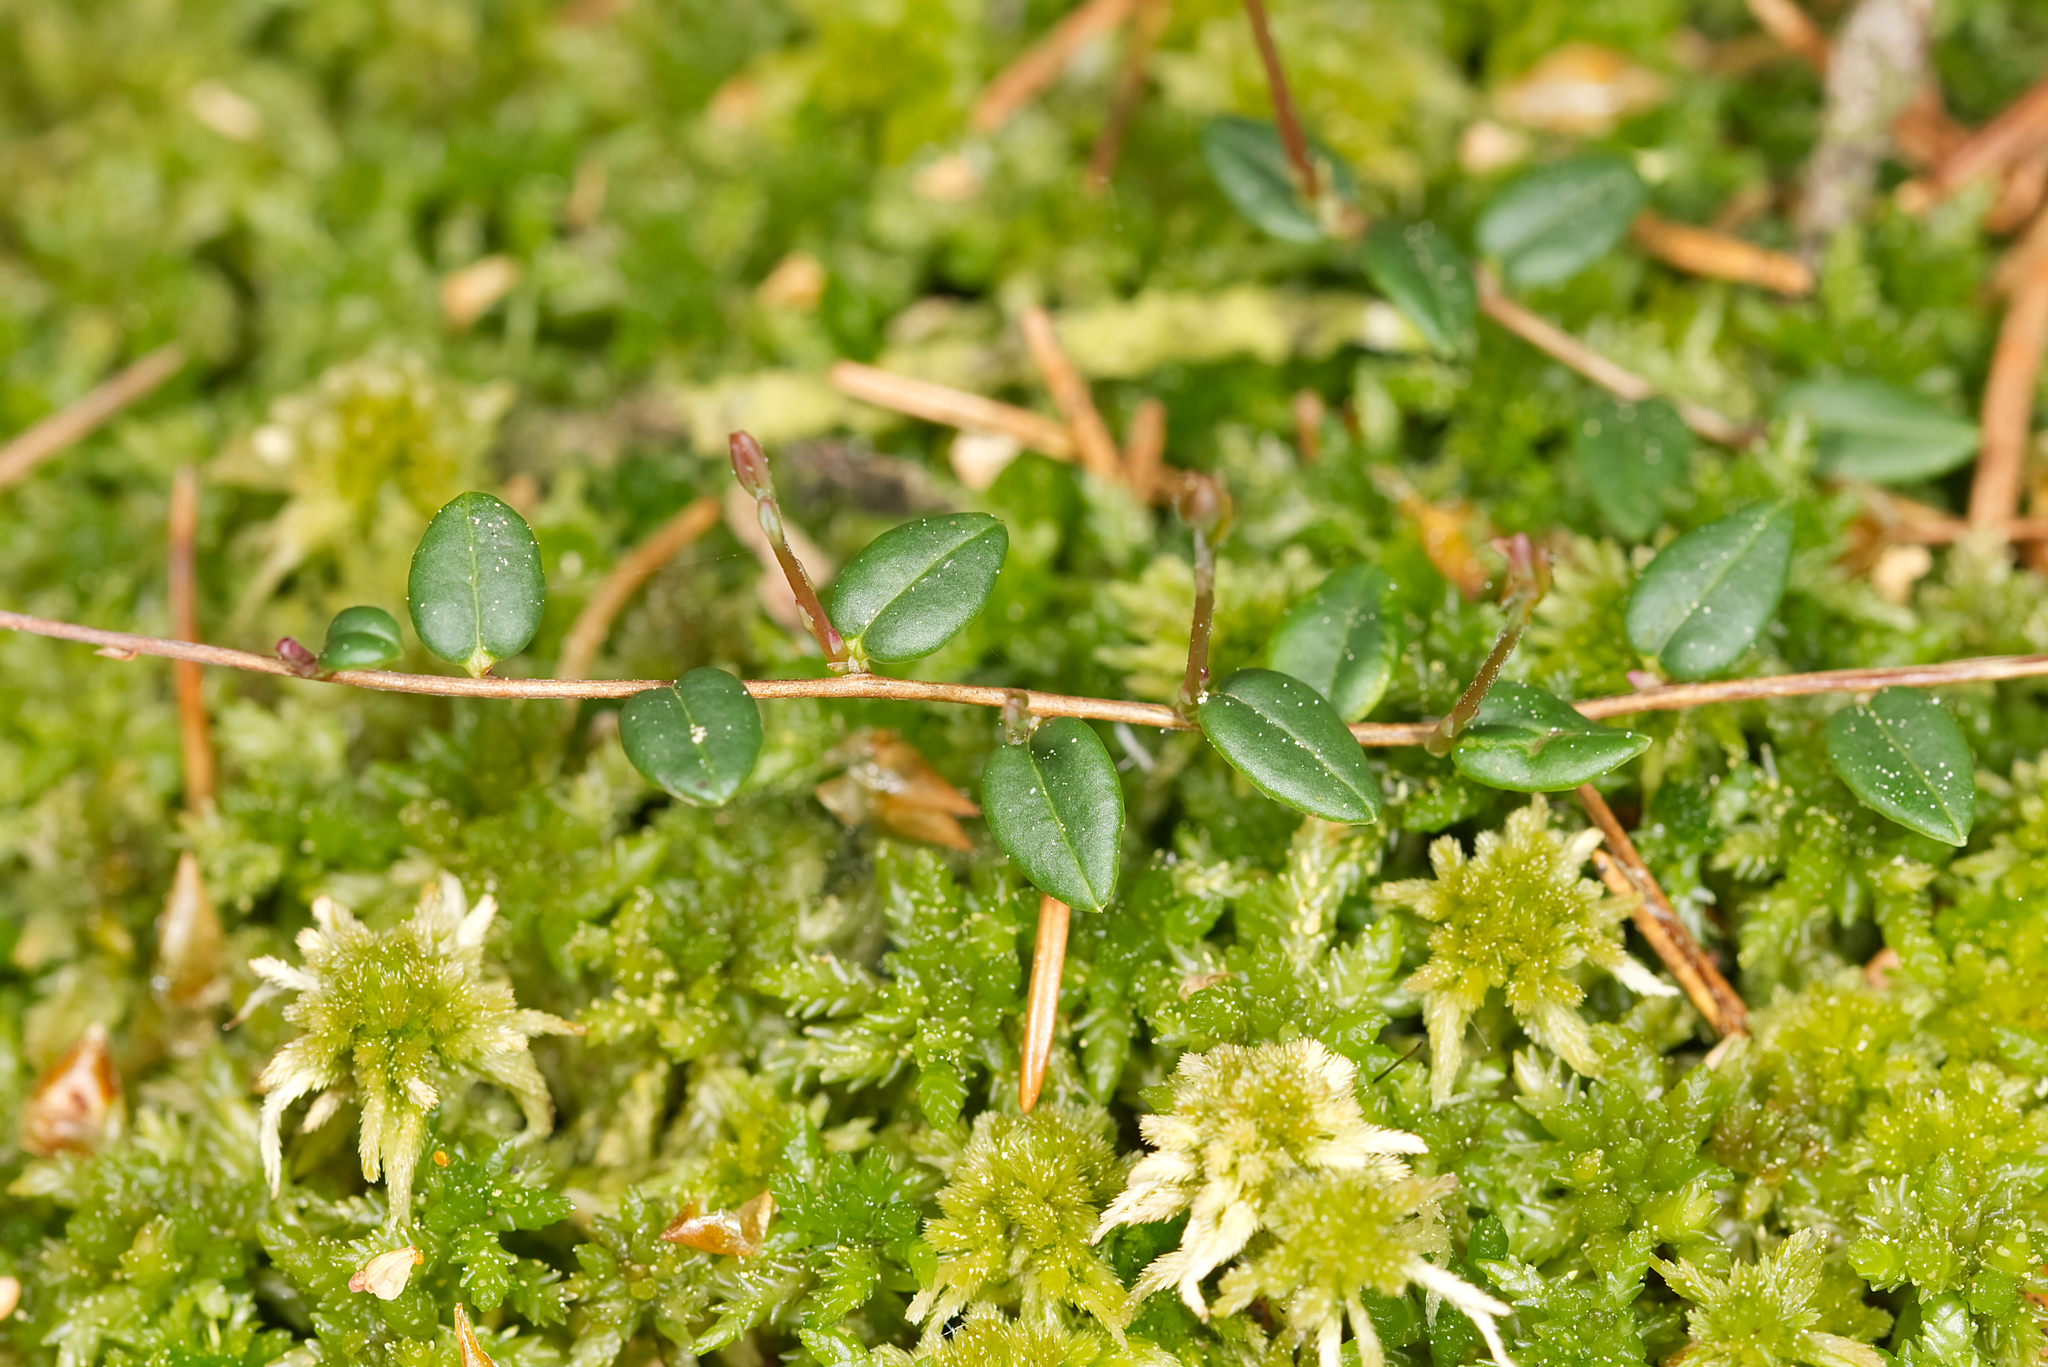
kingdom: Plantae
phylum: Tracheophyta
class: Magnoliopsida
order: Ericales
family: Ericaceae
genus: Vaccinium
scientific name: Vaccinium oxycoccos
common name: Cranberry
